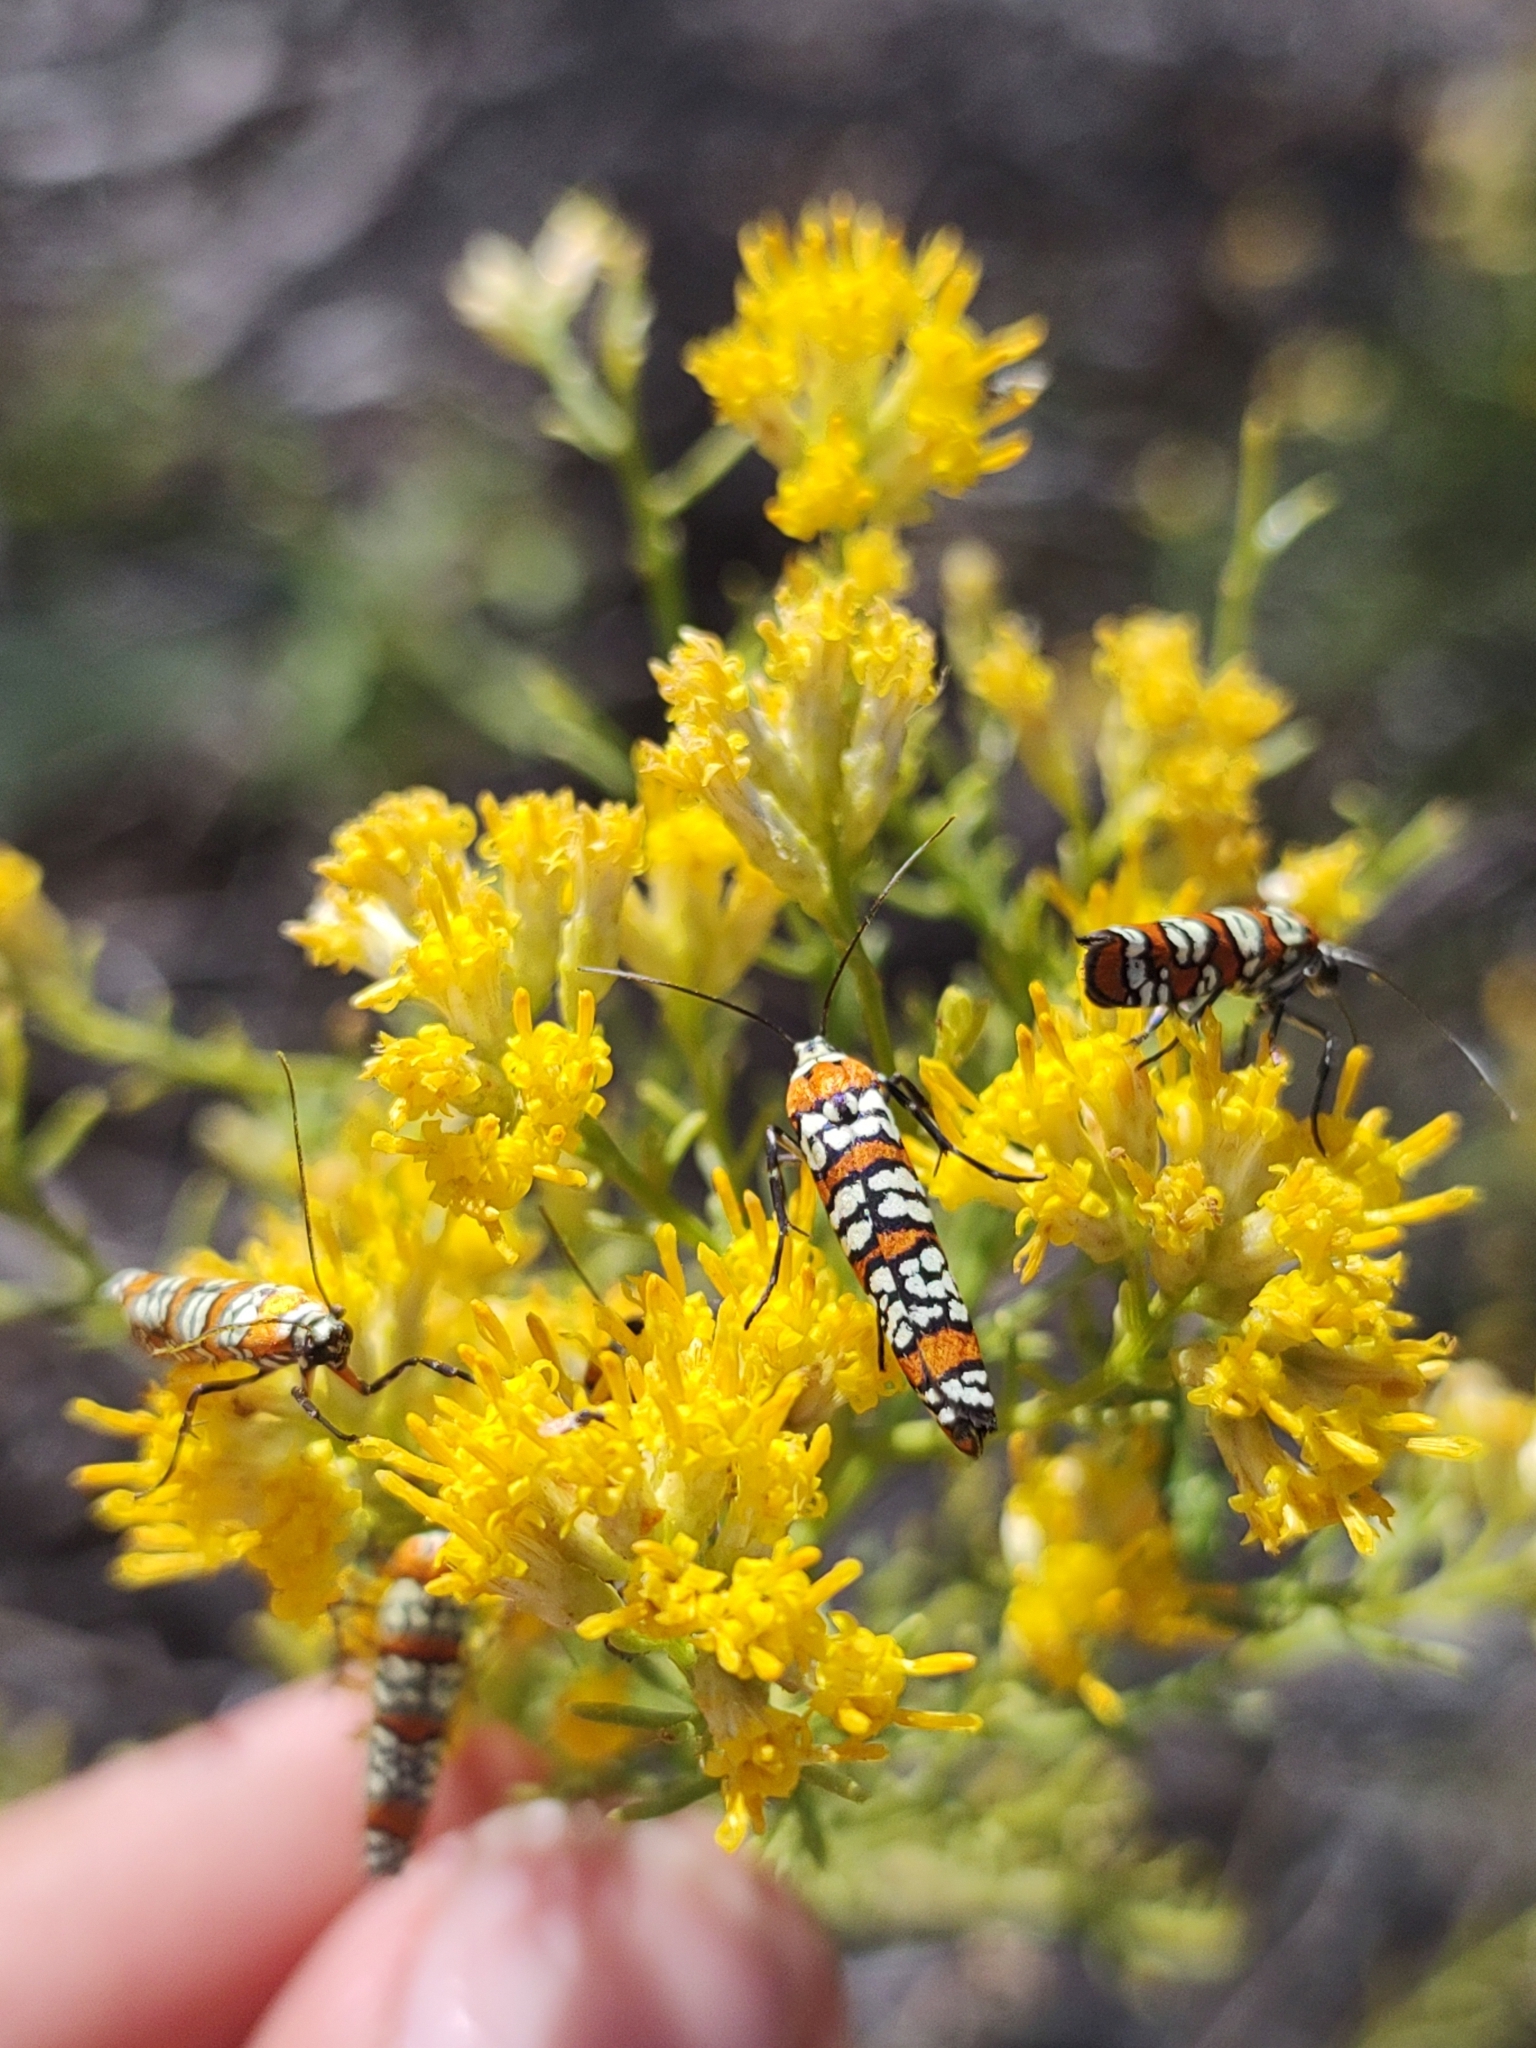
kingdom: Animalia
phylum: Arthropoda
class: Insecta
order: Lepidoptera
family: Attevidae
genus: Atteva
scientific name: Atteva punctella
